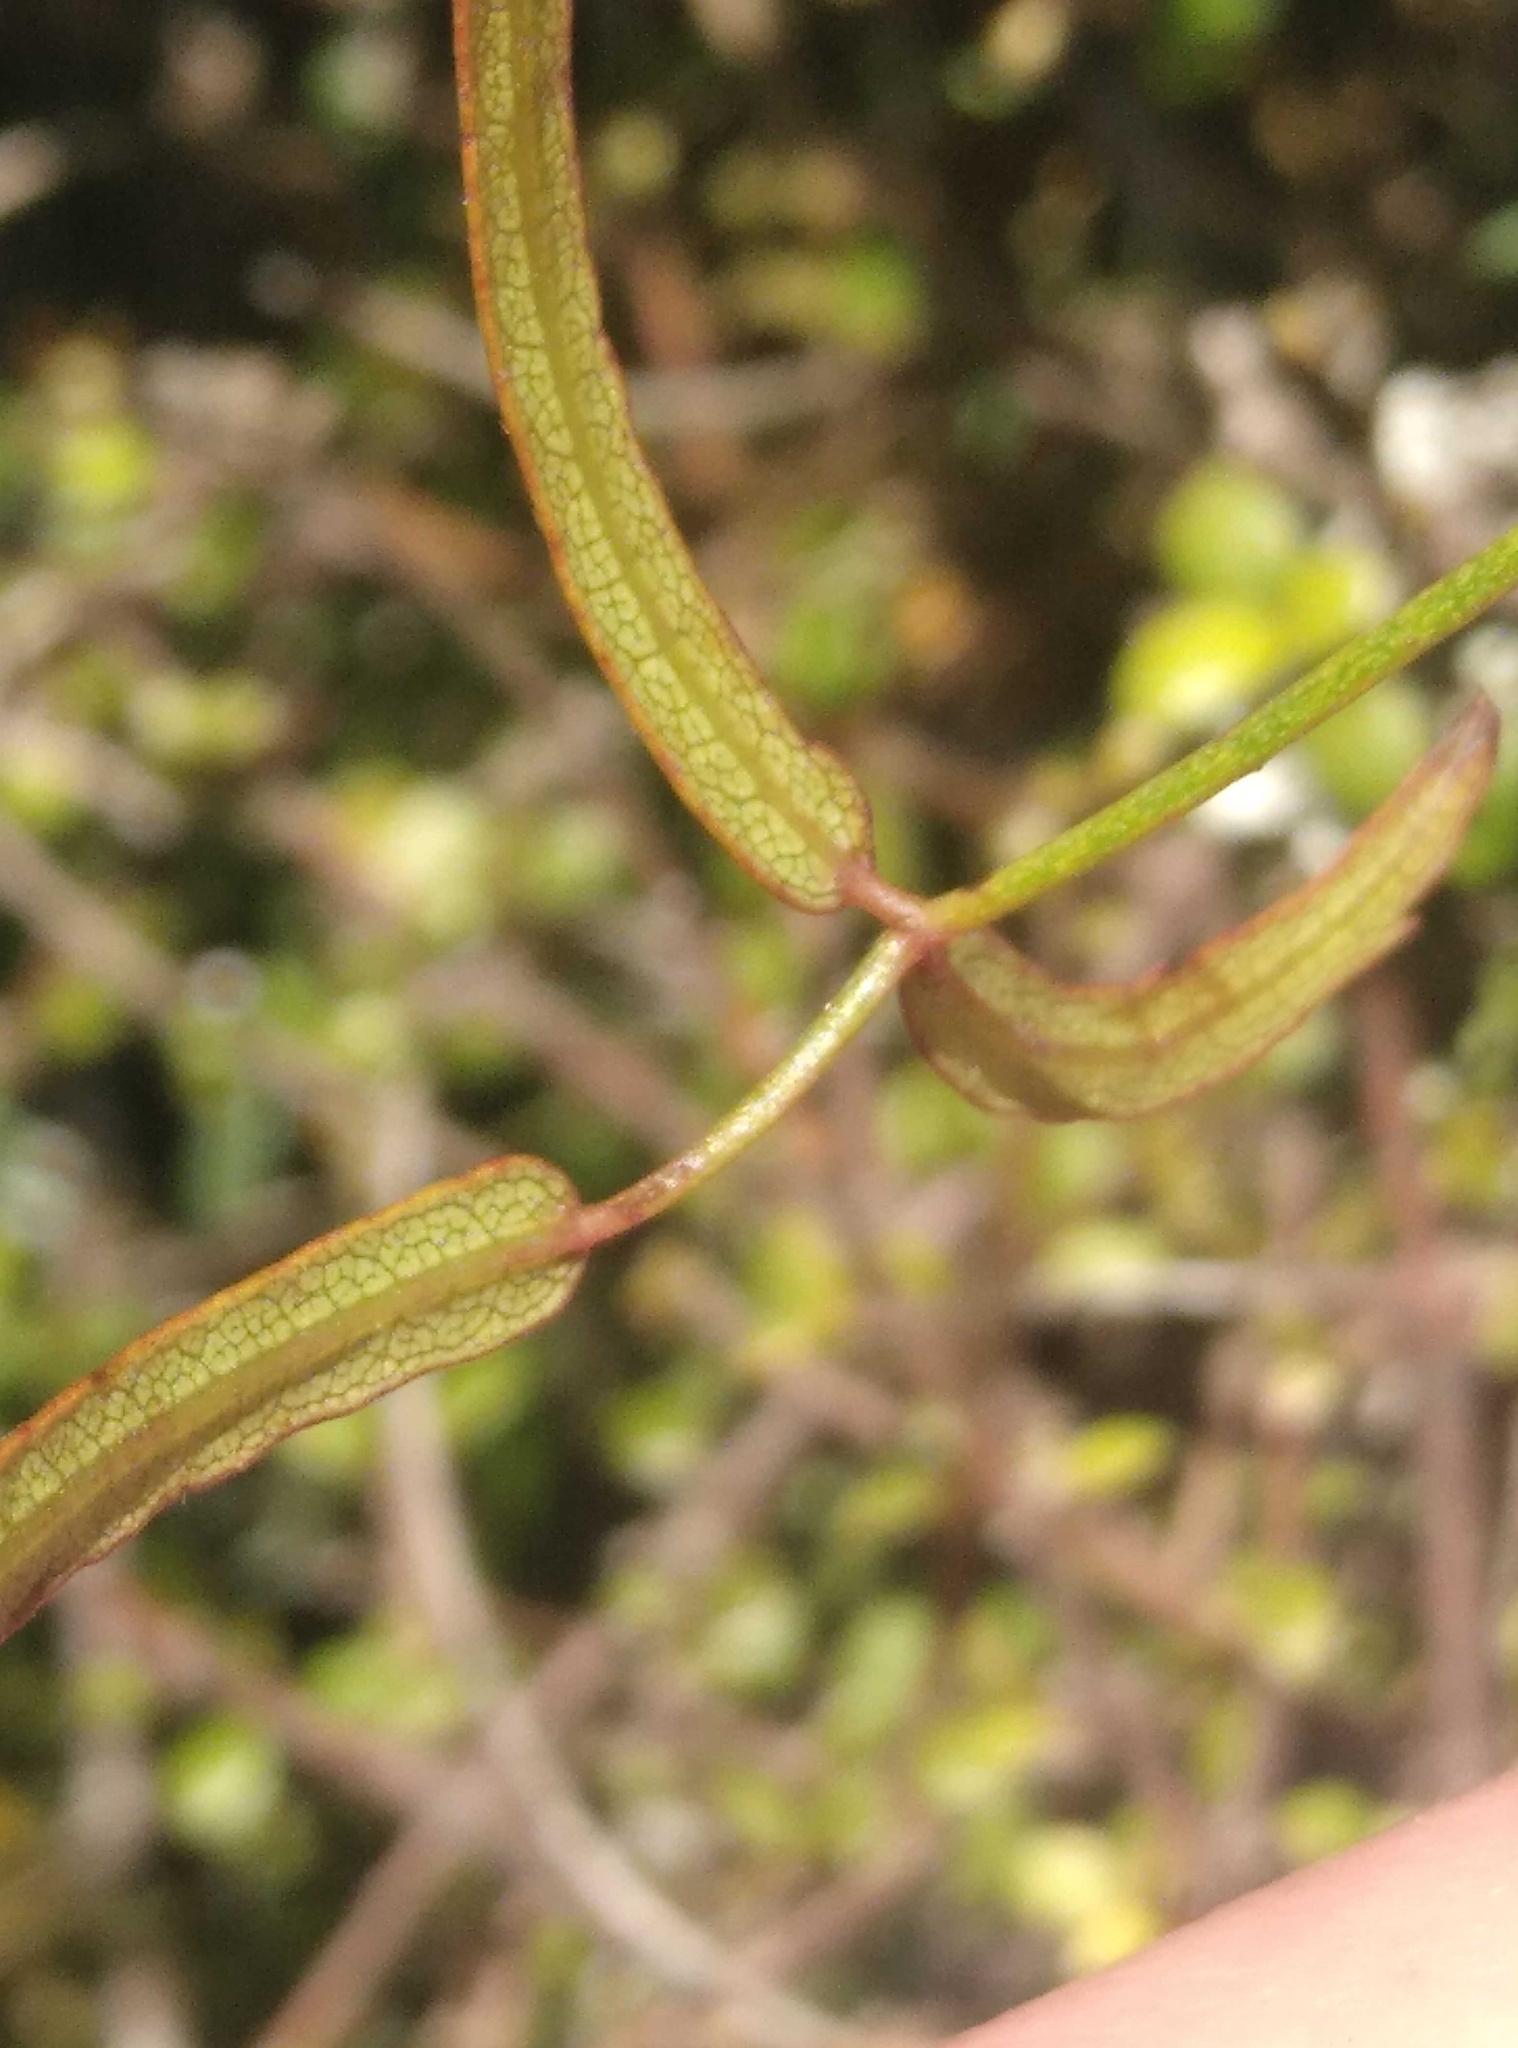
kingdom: Plantae
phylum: Tracheophyta
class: Magnoliopsida
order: Rosales
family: Rosaceae
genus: Rubus
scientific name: Rubus schmidelioides
